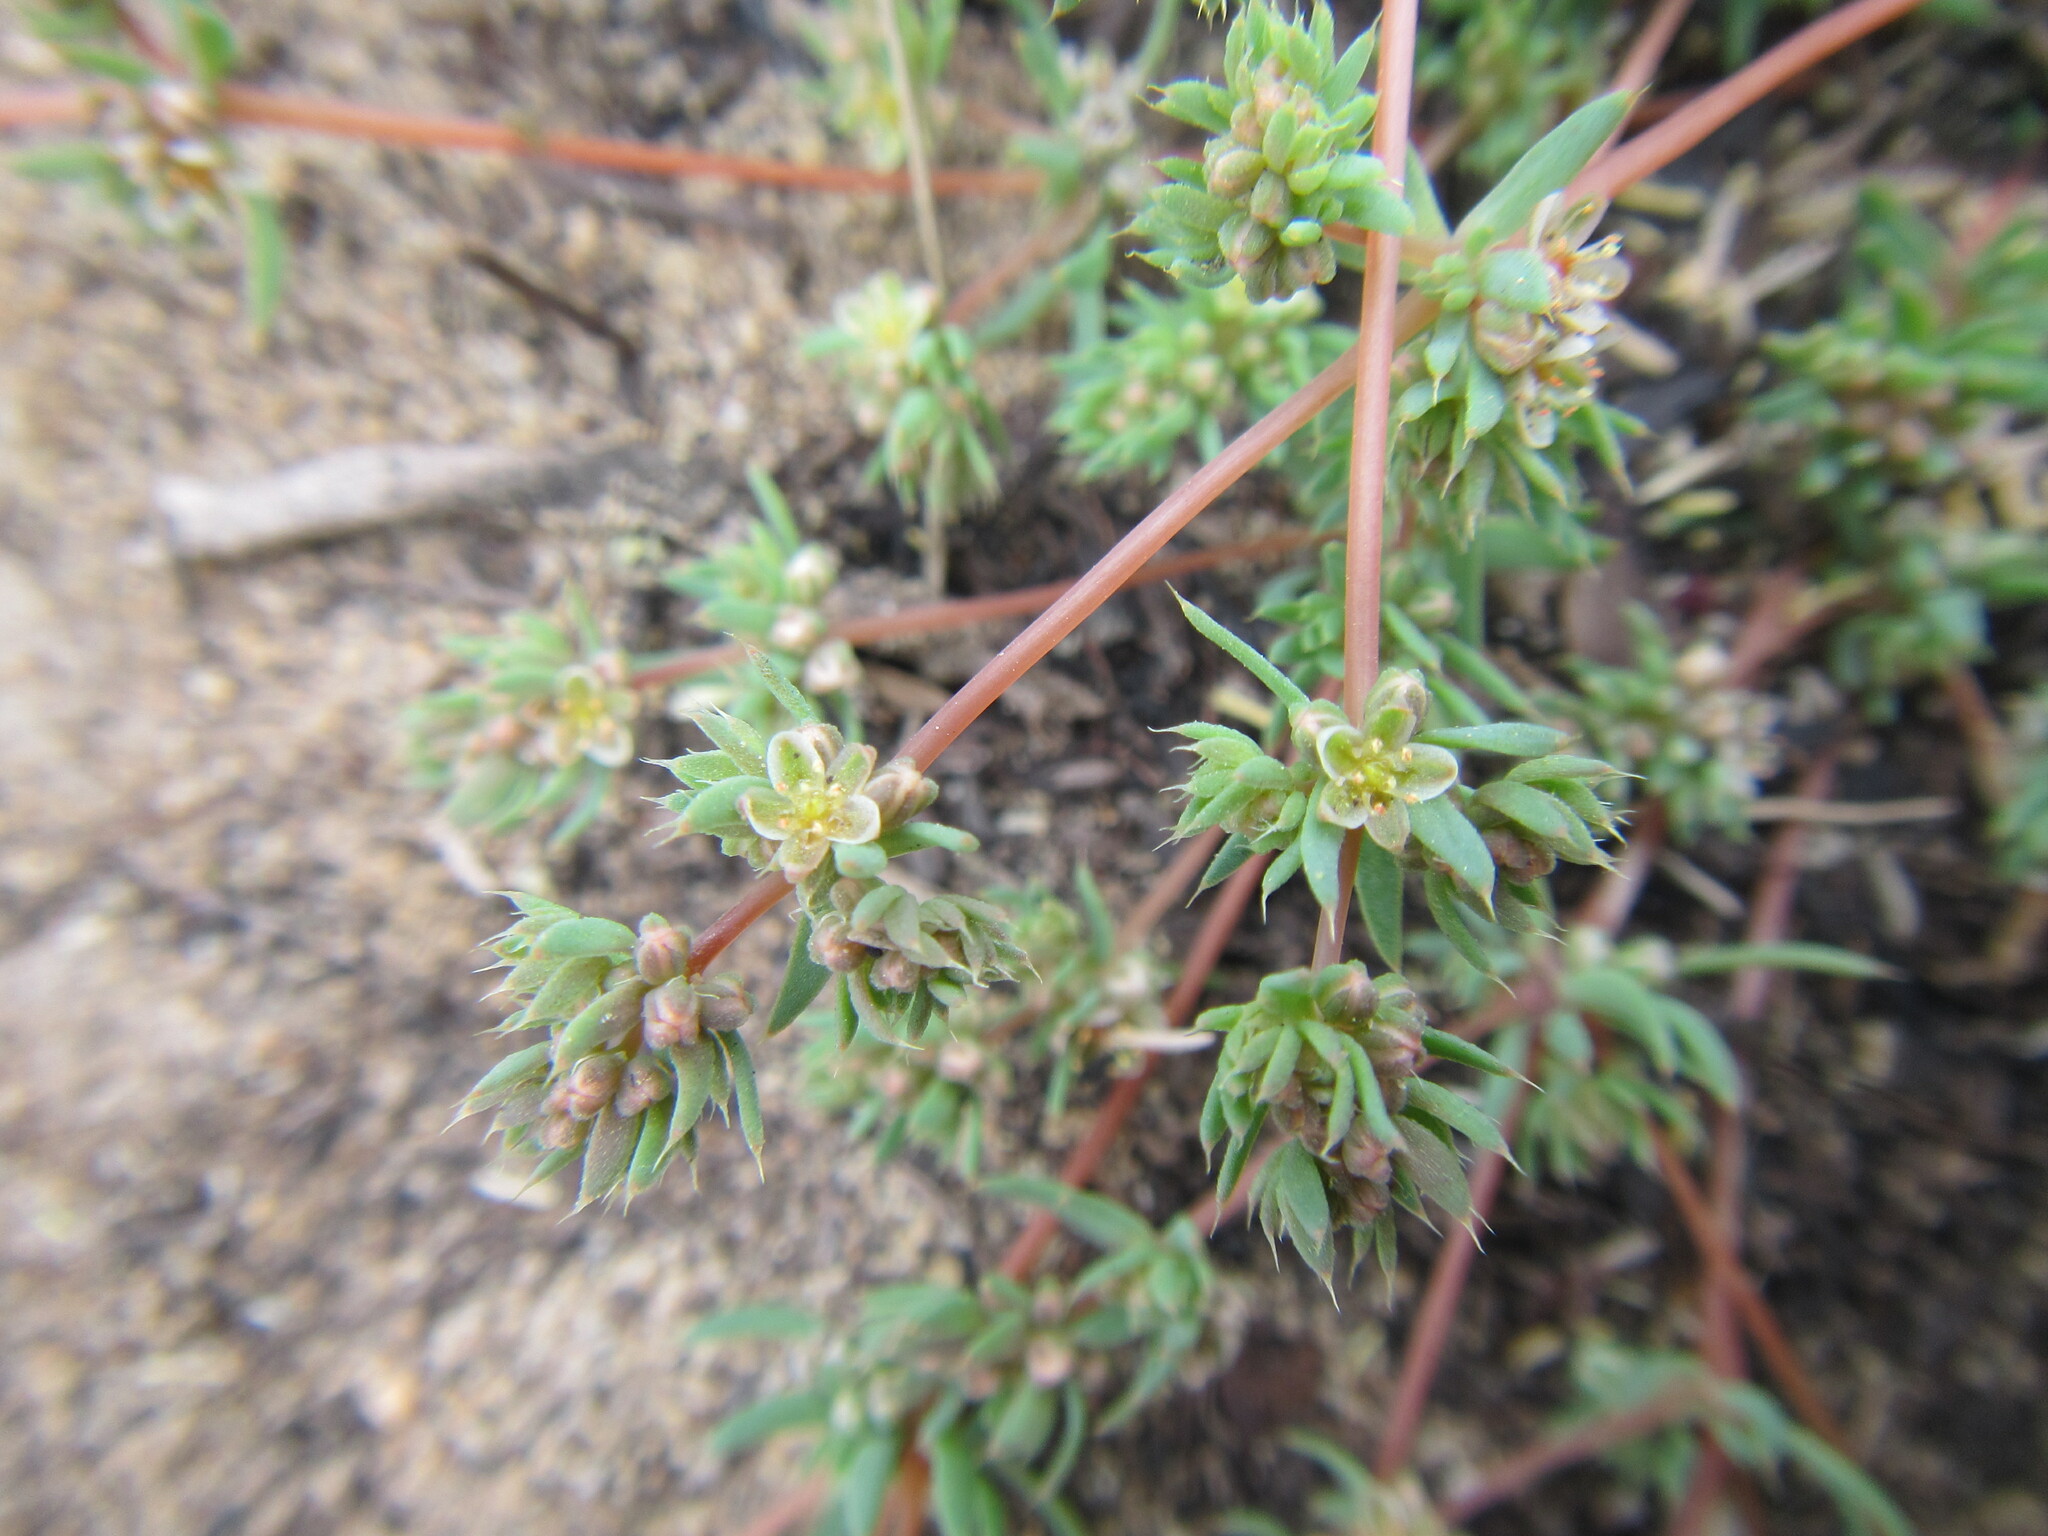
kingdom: Plantae
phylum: Tracheophyta
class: Magnoliopsida
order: Caryophyllales
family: Molluginaceae
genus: Adenogramma
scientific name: Adenogramma glomerata
